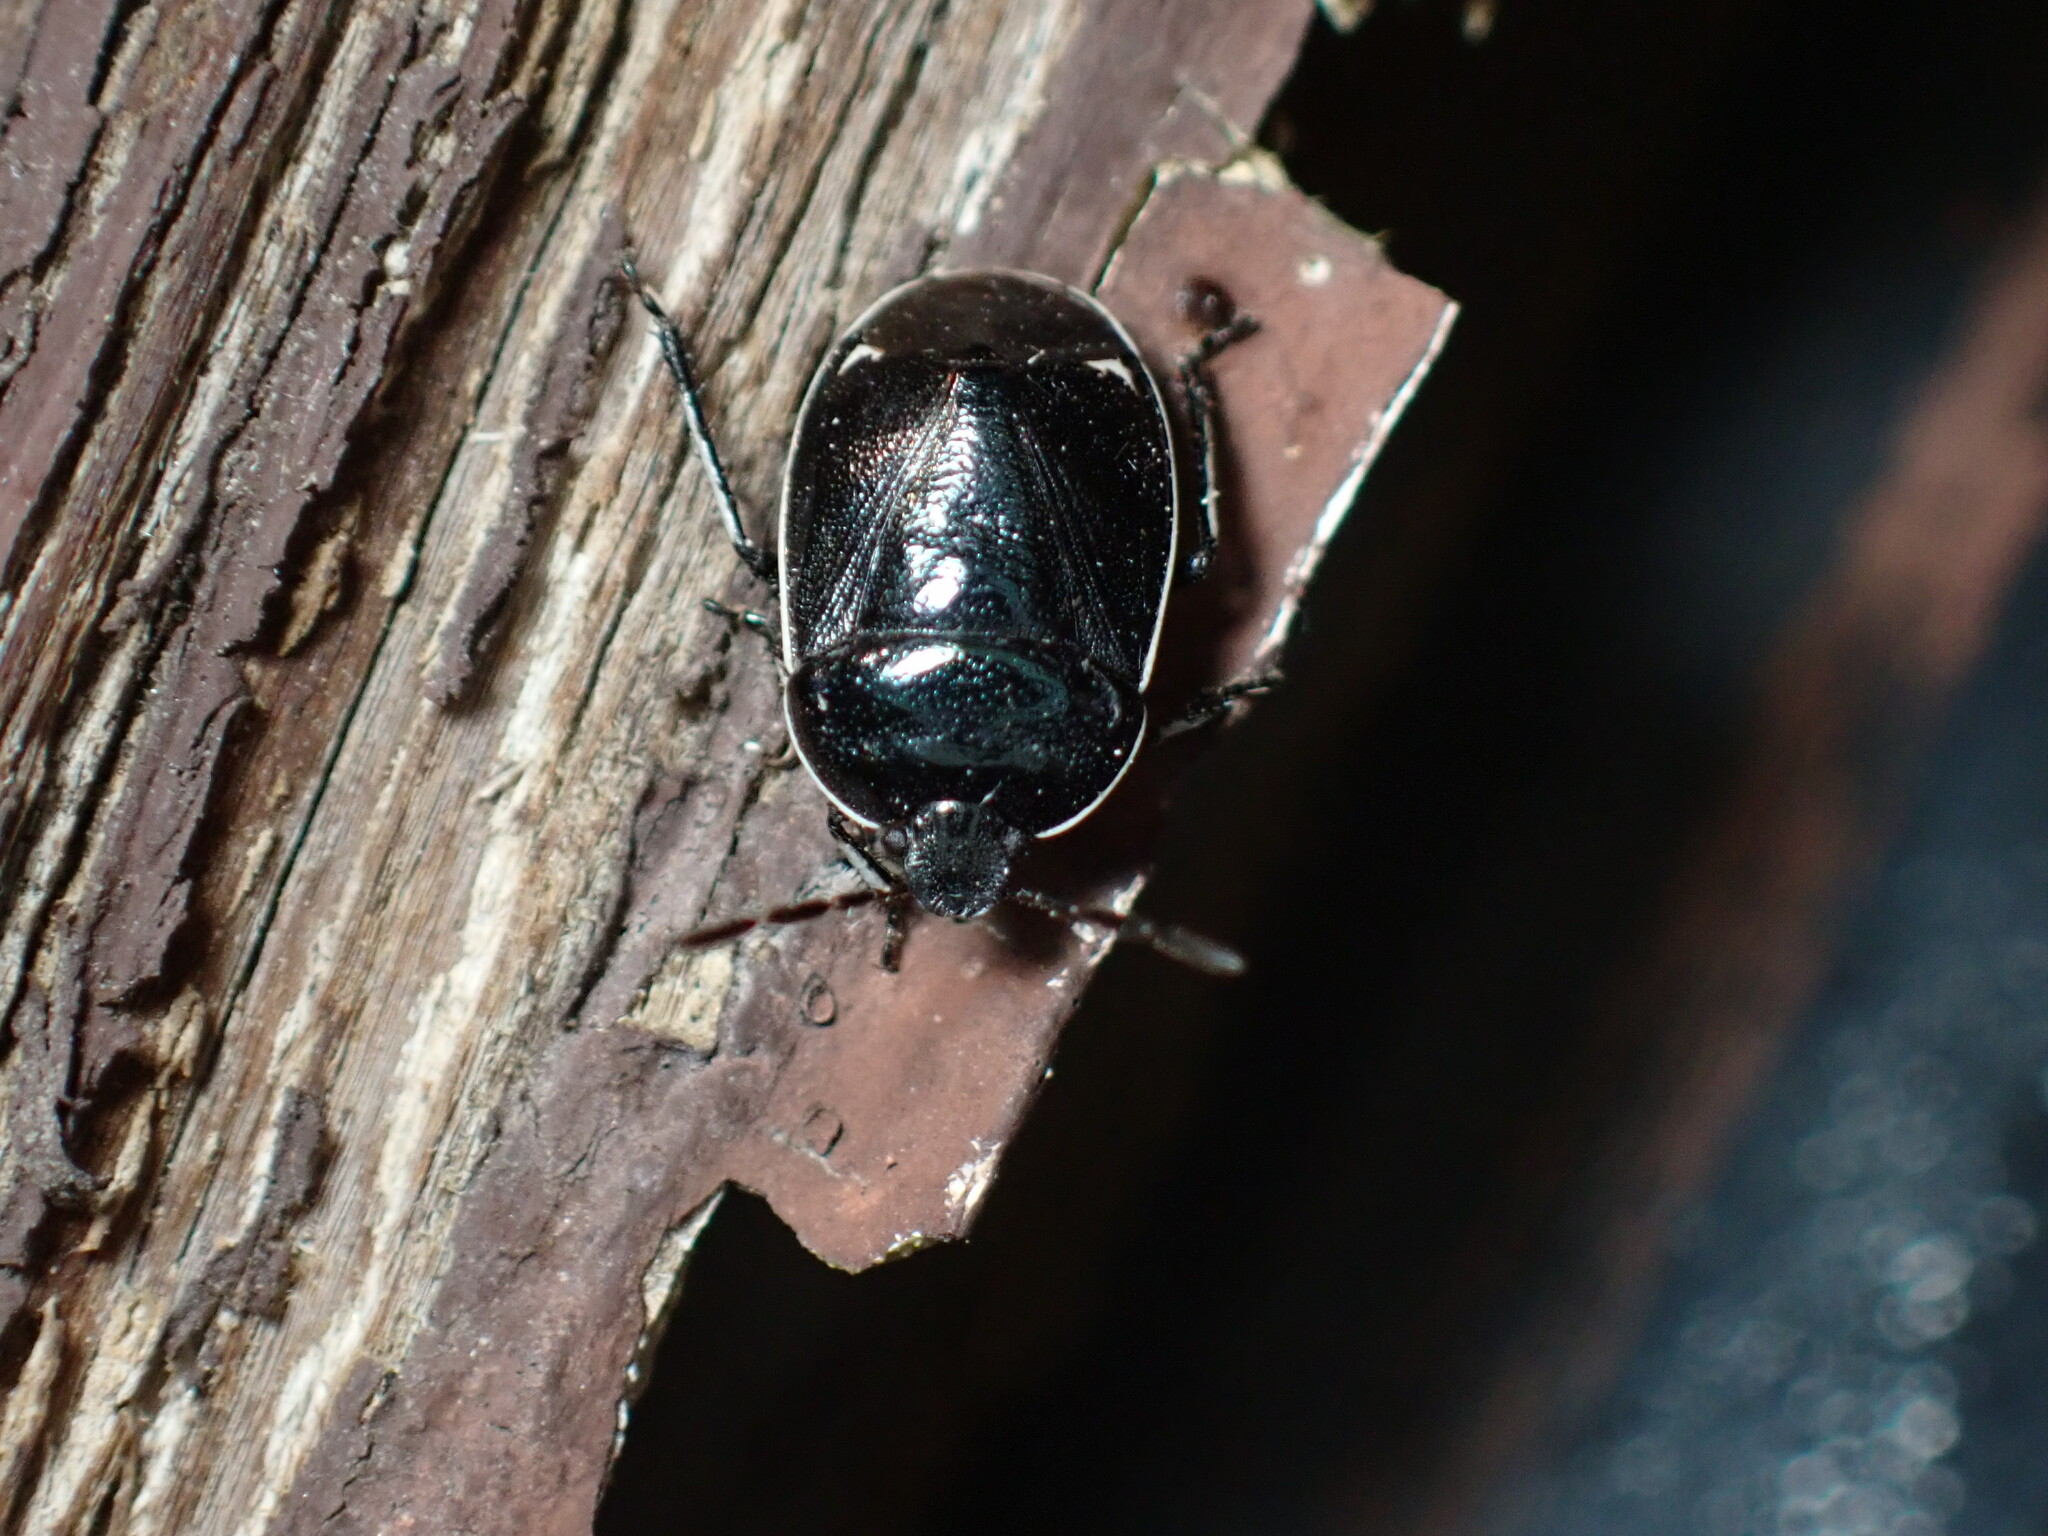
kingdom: Animalia
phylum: Arthropoda
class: Insecta
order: Hemiptera
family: Cydnidae
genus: Sehirus
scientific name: Sehirus cinctus
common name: White-margined burrower bug
